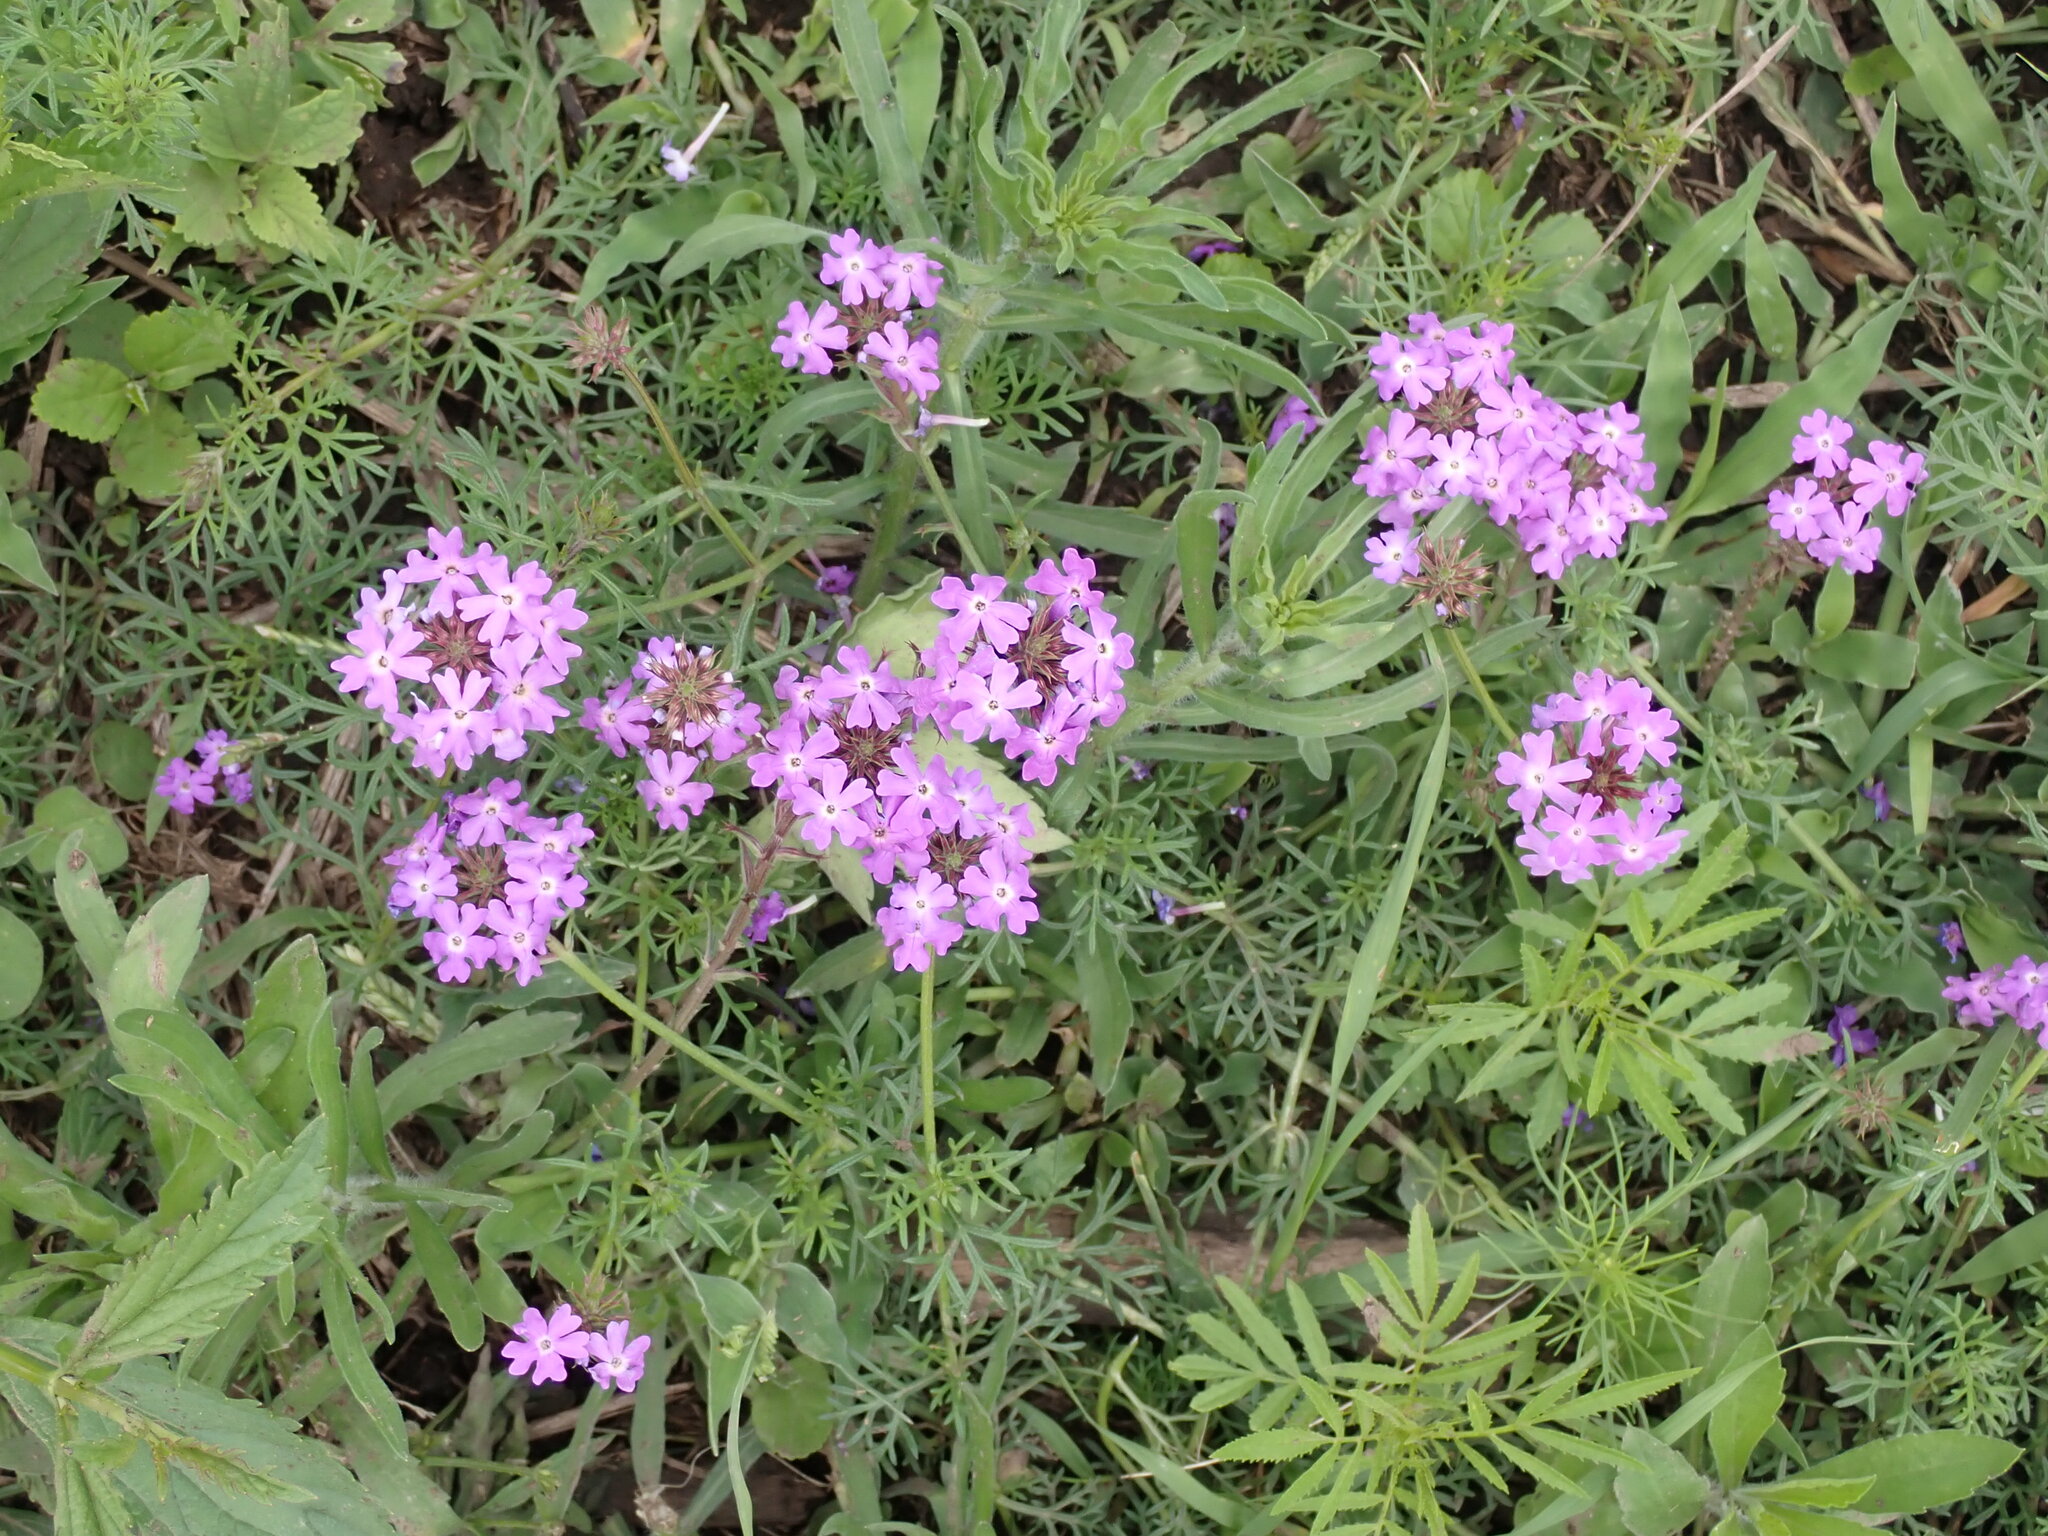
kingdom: Plantae
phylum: Tracheophyta
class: Magnoliopsida
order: Lamiales
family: Verbenaceae
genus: Verbena
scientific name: Verbena aristigera
